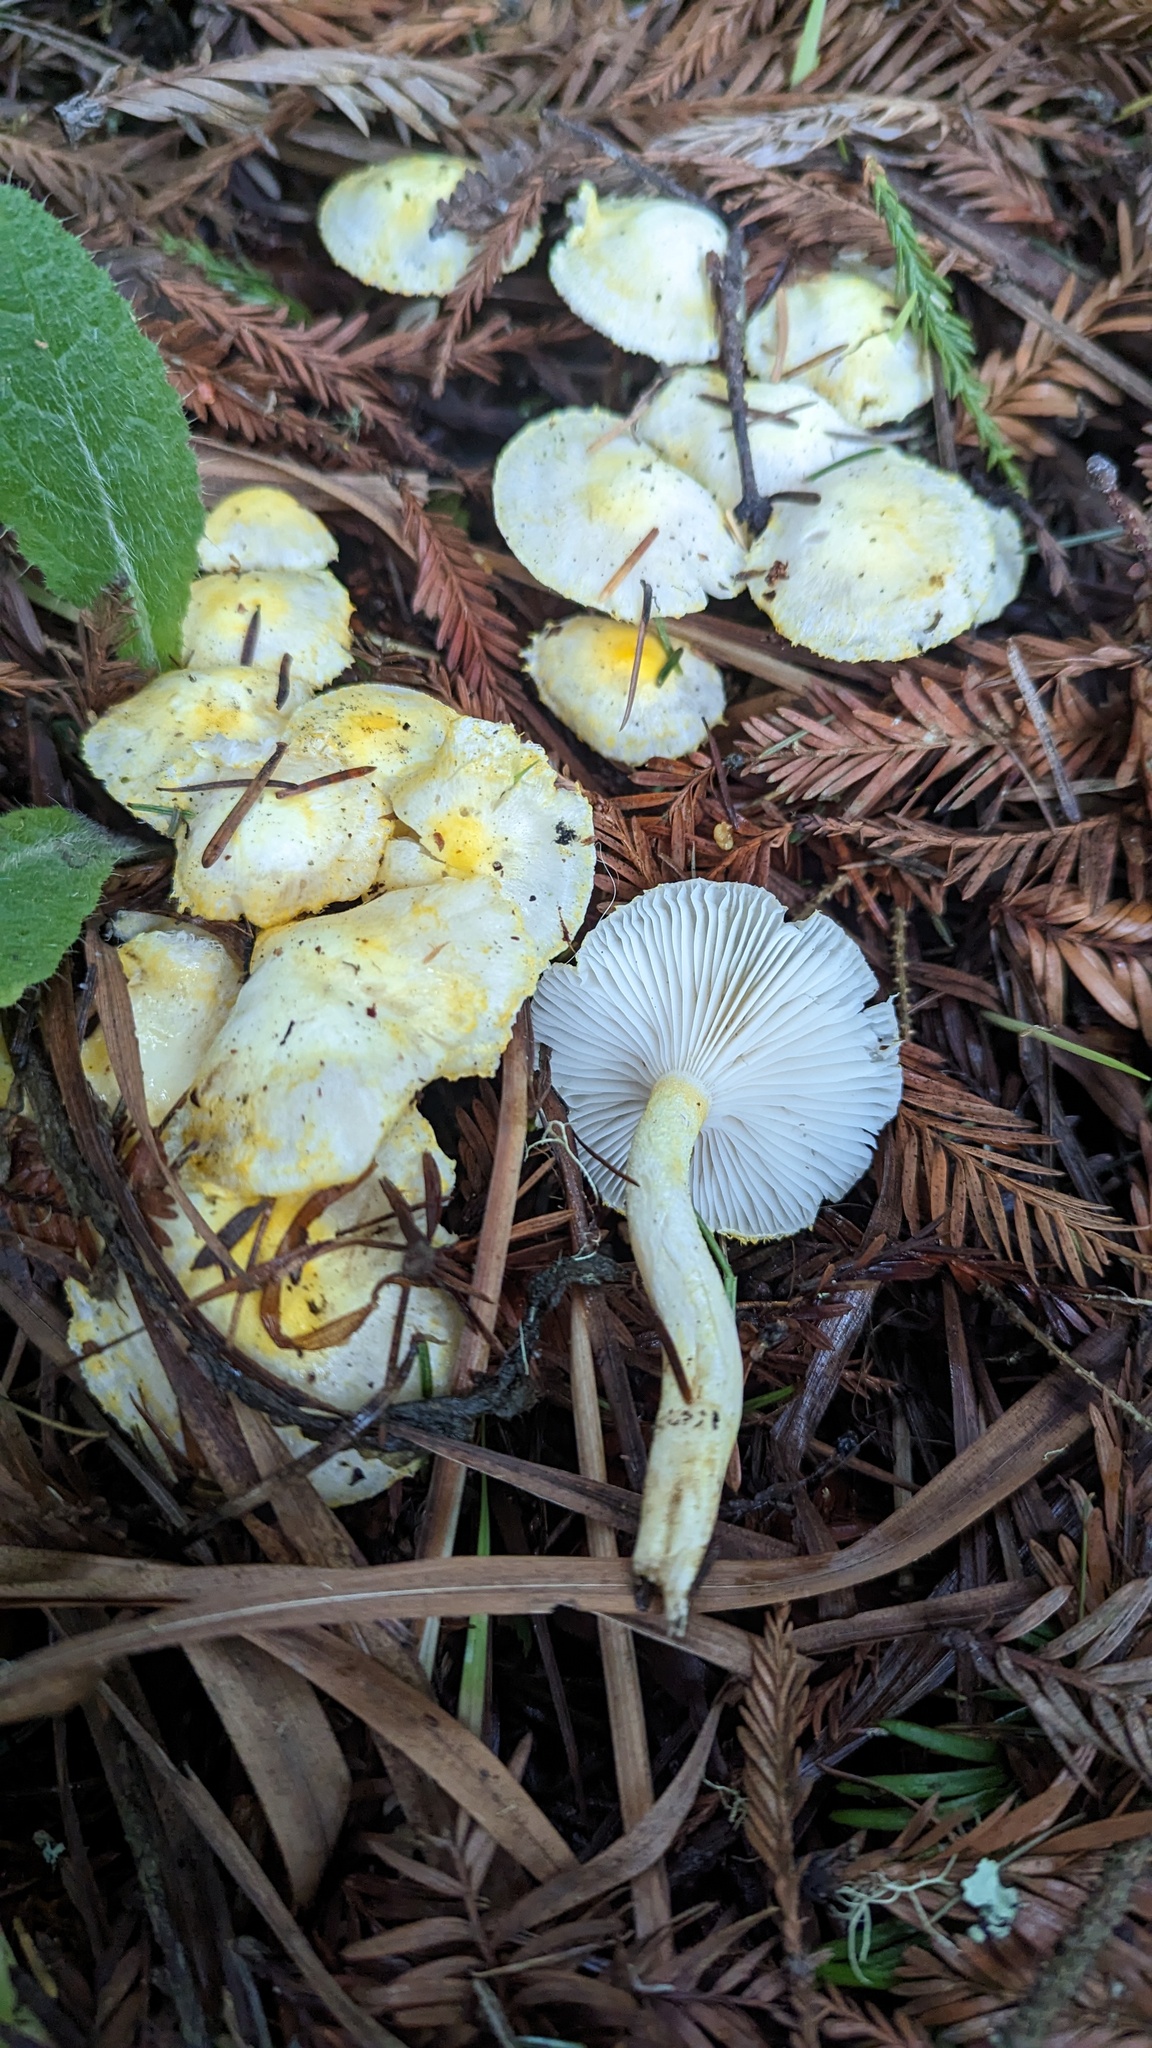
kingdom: Fungi
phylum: Basidiomycota
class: Agaricomycetes
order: Agaricales
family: Hygrophoraceae
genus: Hygrophorus
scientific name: Hygrophorus chrysodon
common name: Gold flecked woodwax
